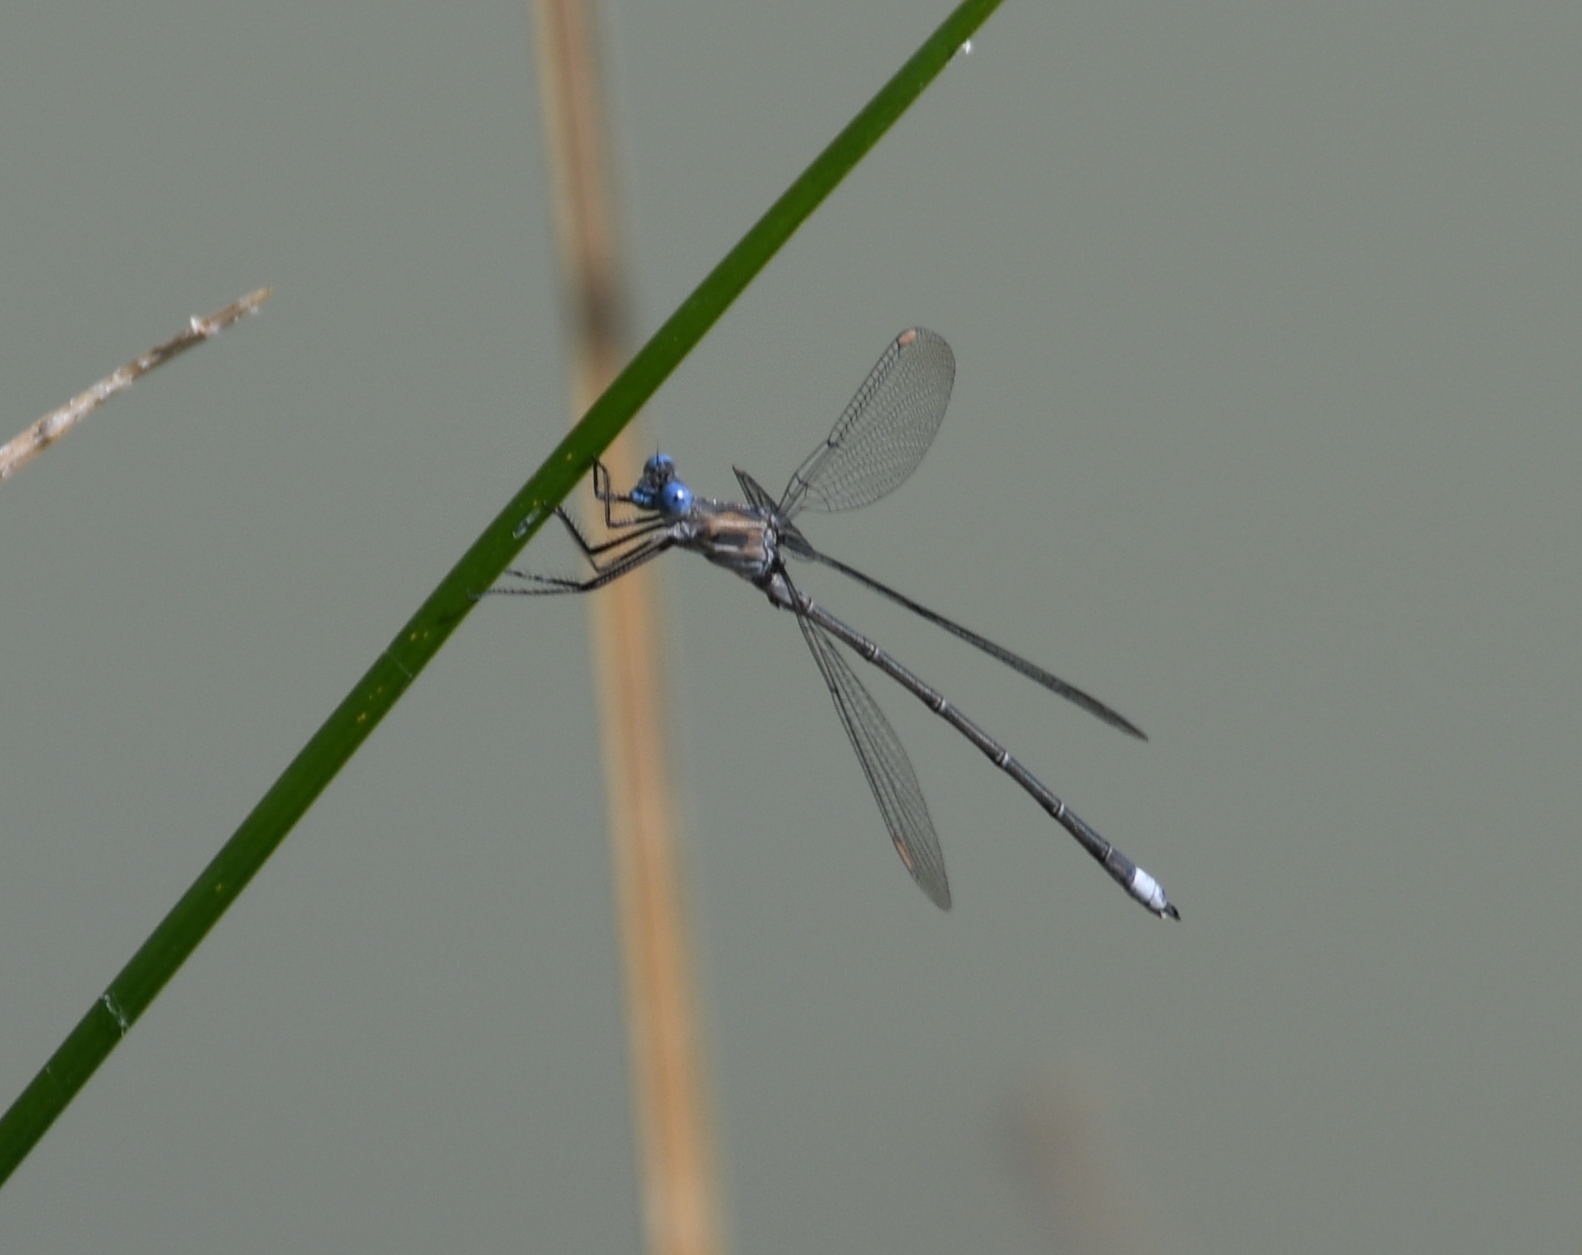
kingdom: Animalia
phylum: Arthropoda
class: Insecta
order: Odonata
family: Lestidae
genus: Archilestes
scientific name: Archilestes californicus
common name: California spreadwing
